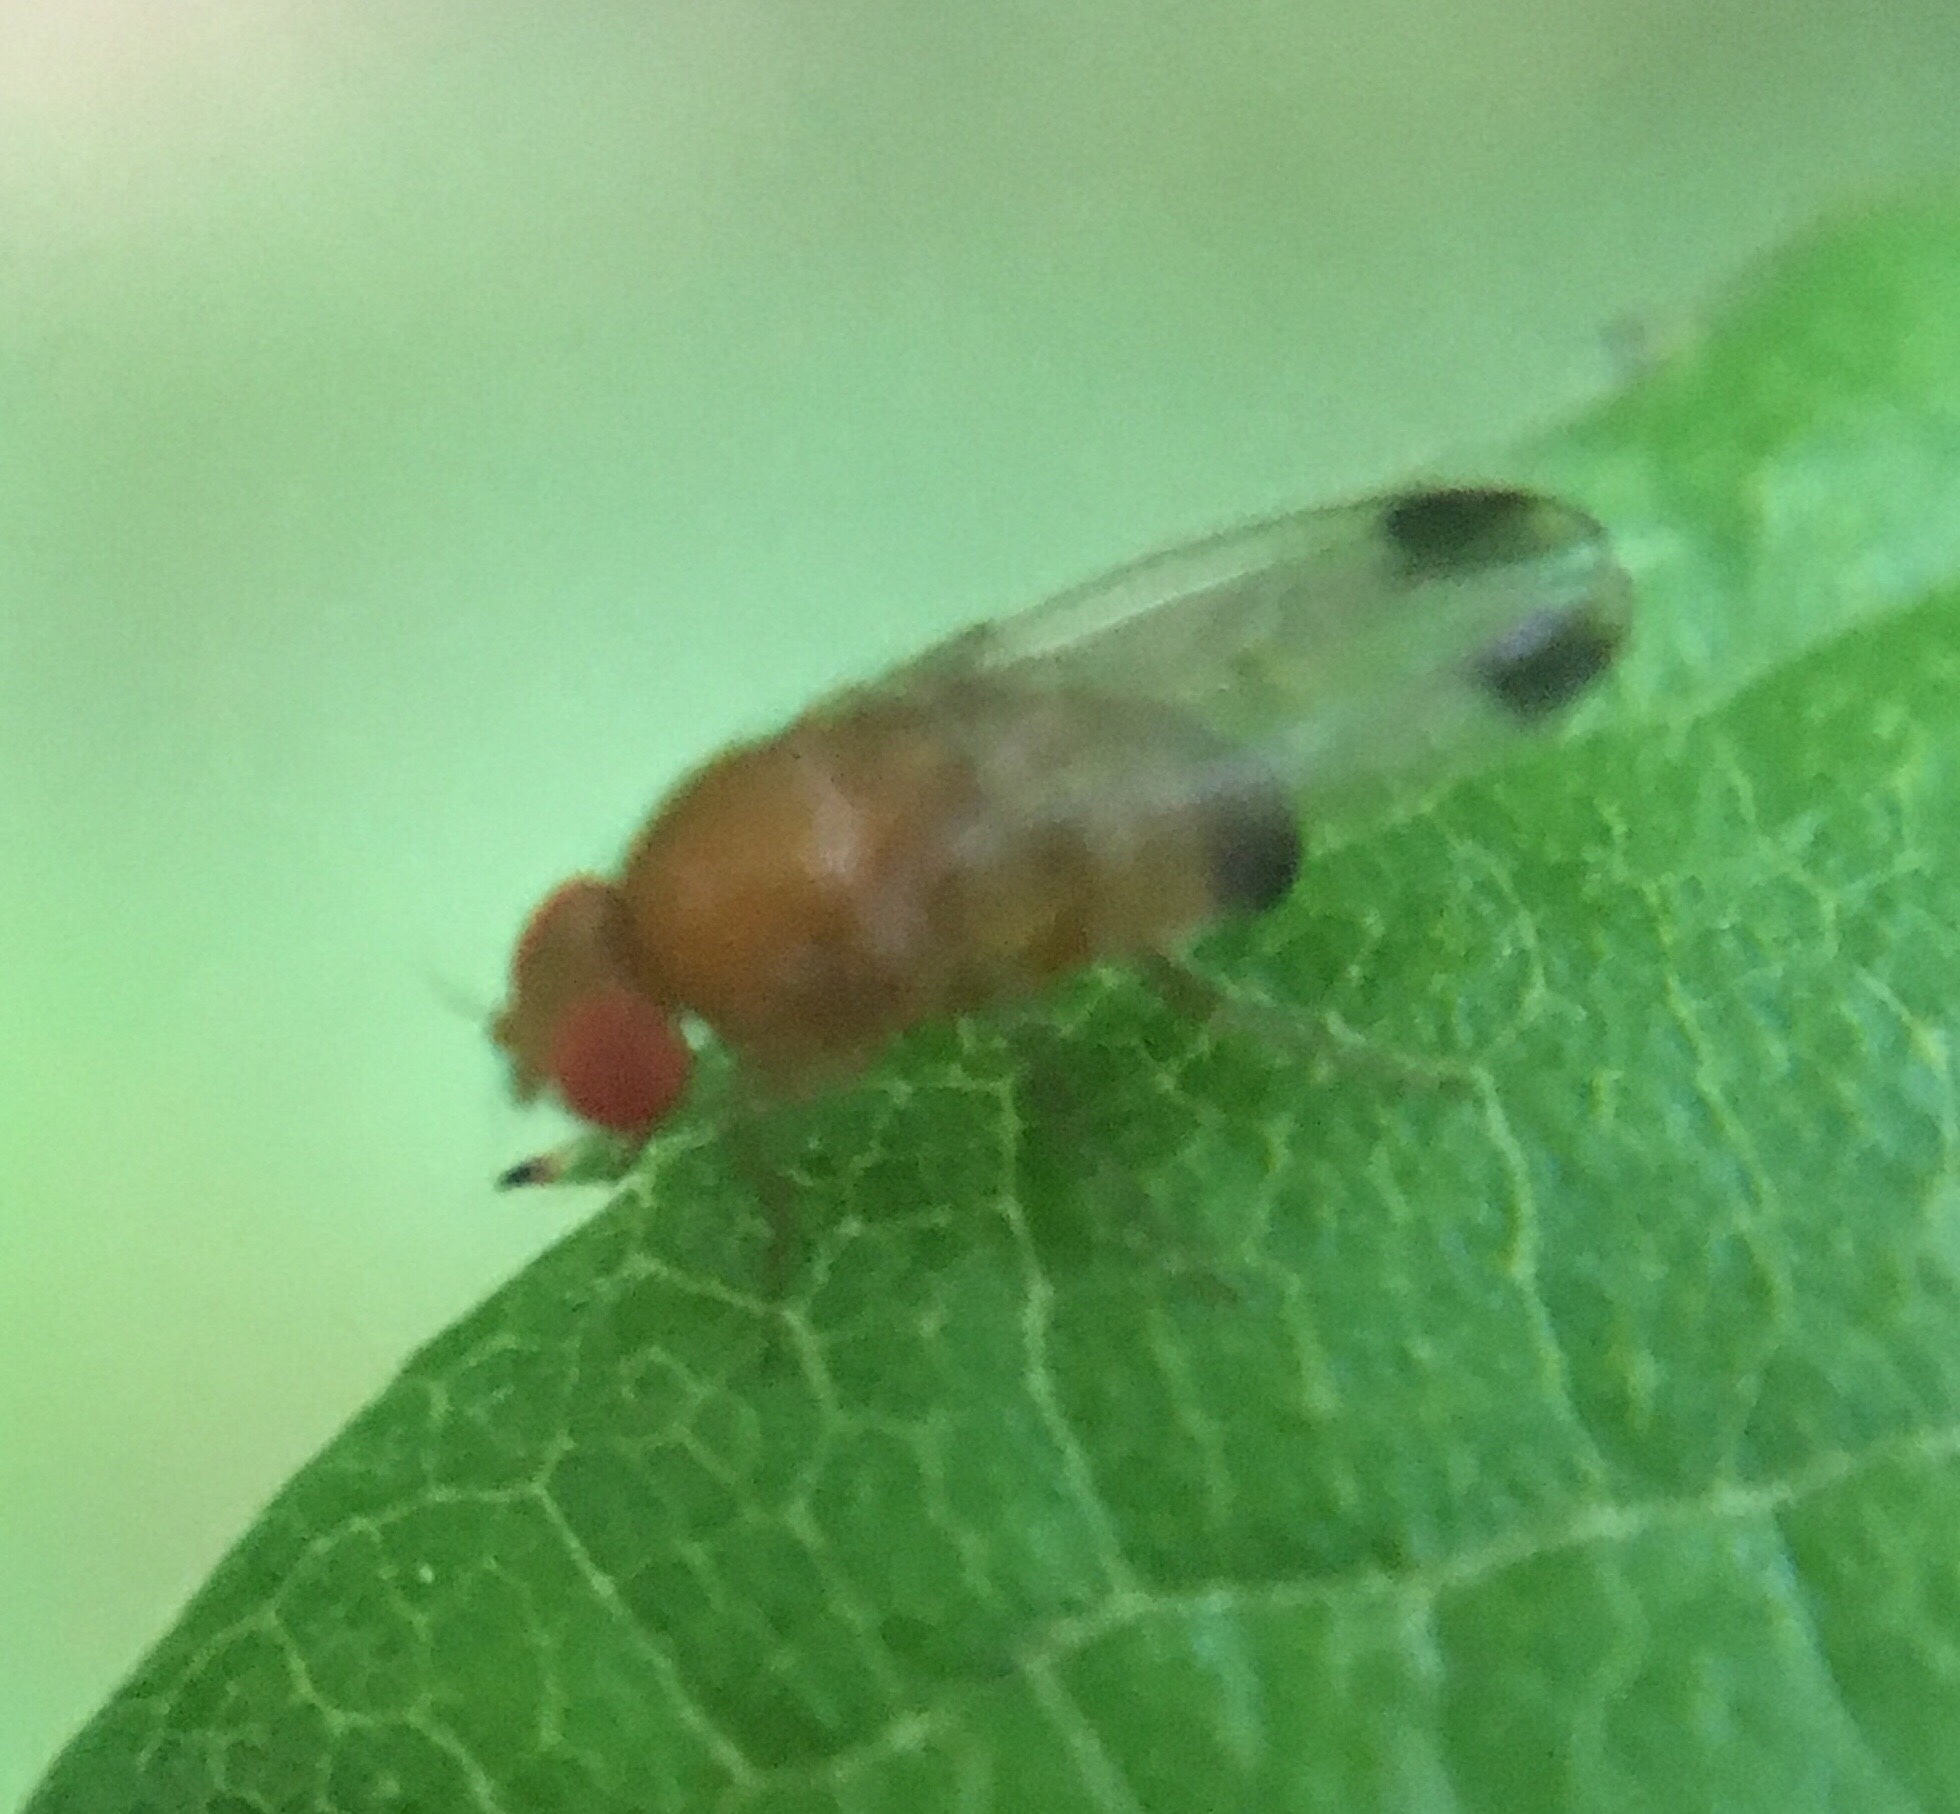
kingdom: Animalia
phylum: Arthropoda
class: Insecta
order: Diptera
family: Drosophilidae
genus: Drosophila
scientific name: Drosophila suzukii
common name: Spotted-wing drosophila
